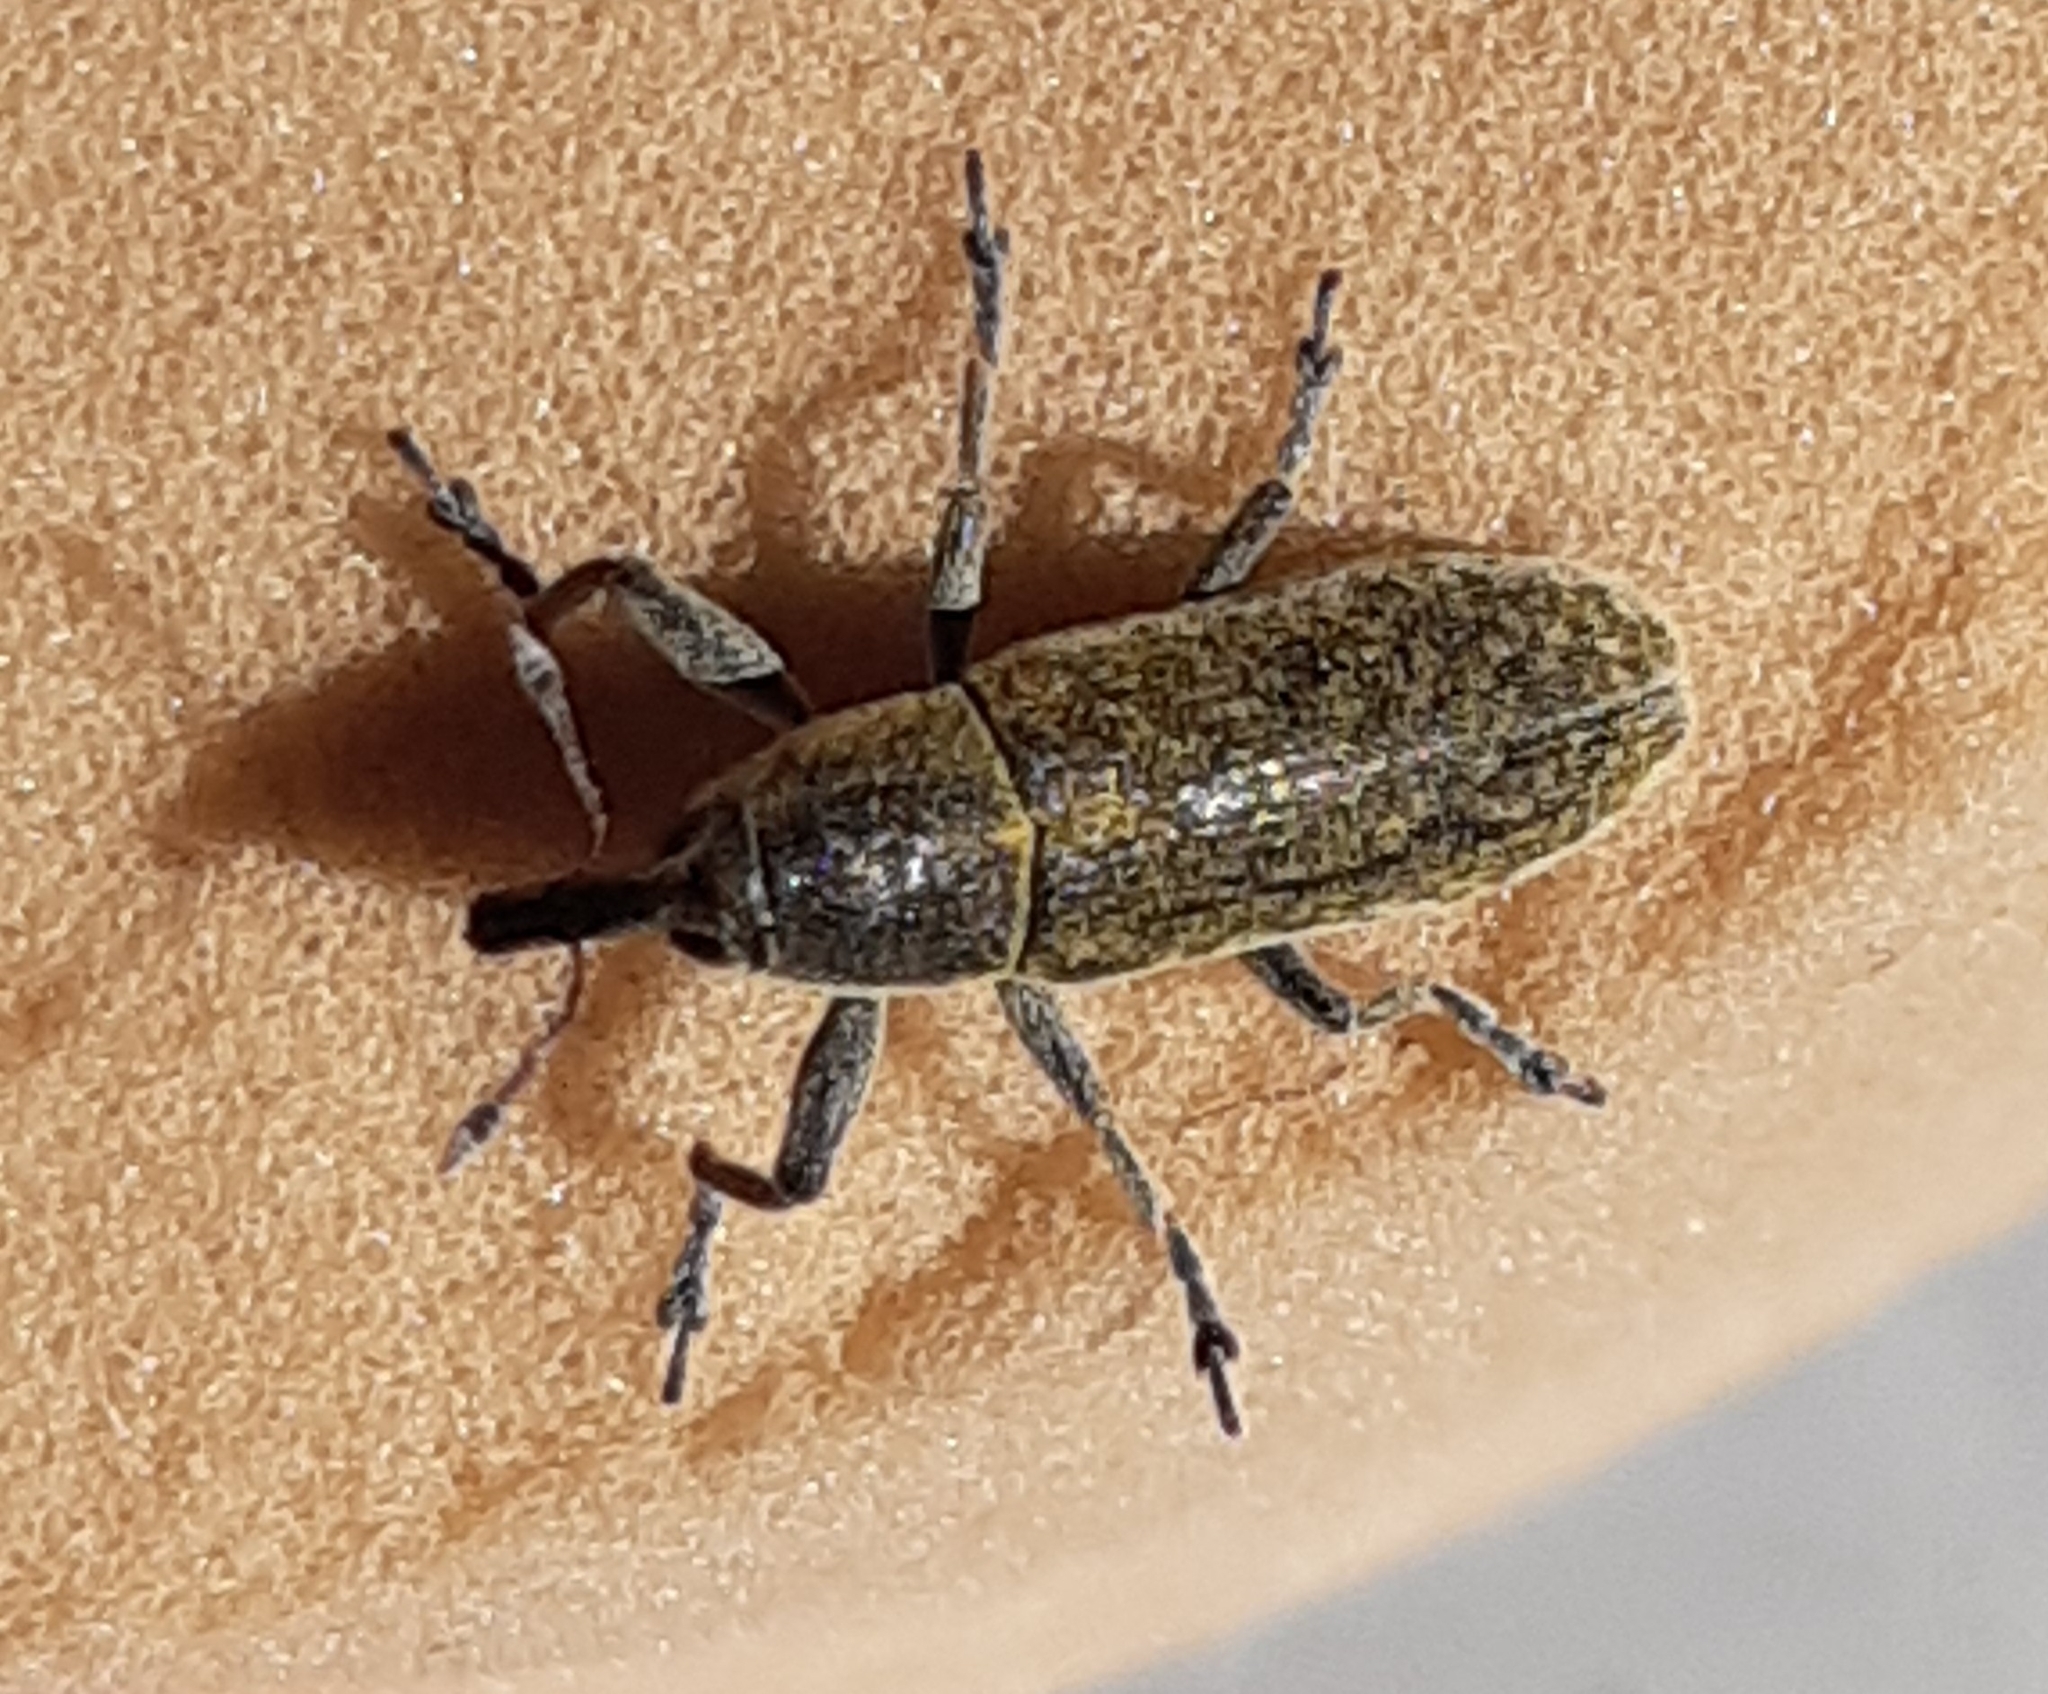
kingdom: Animalia
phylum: Arthropoda
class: Insecta
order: Coleoptera
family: Curculionidae
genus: Lixus
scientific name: Lixus rubicundus
